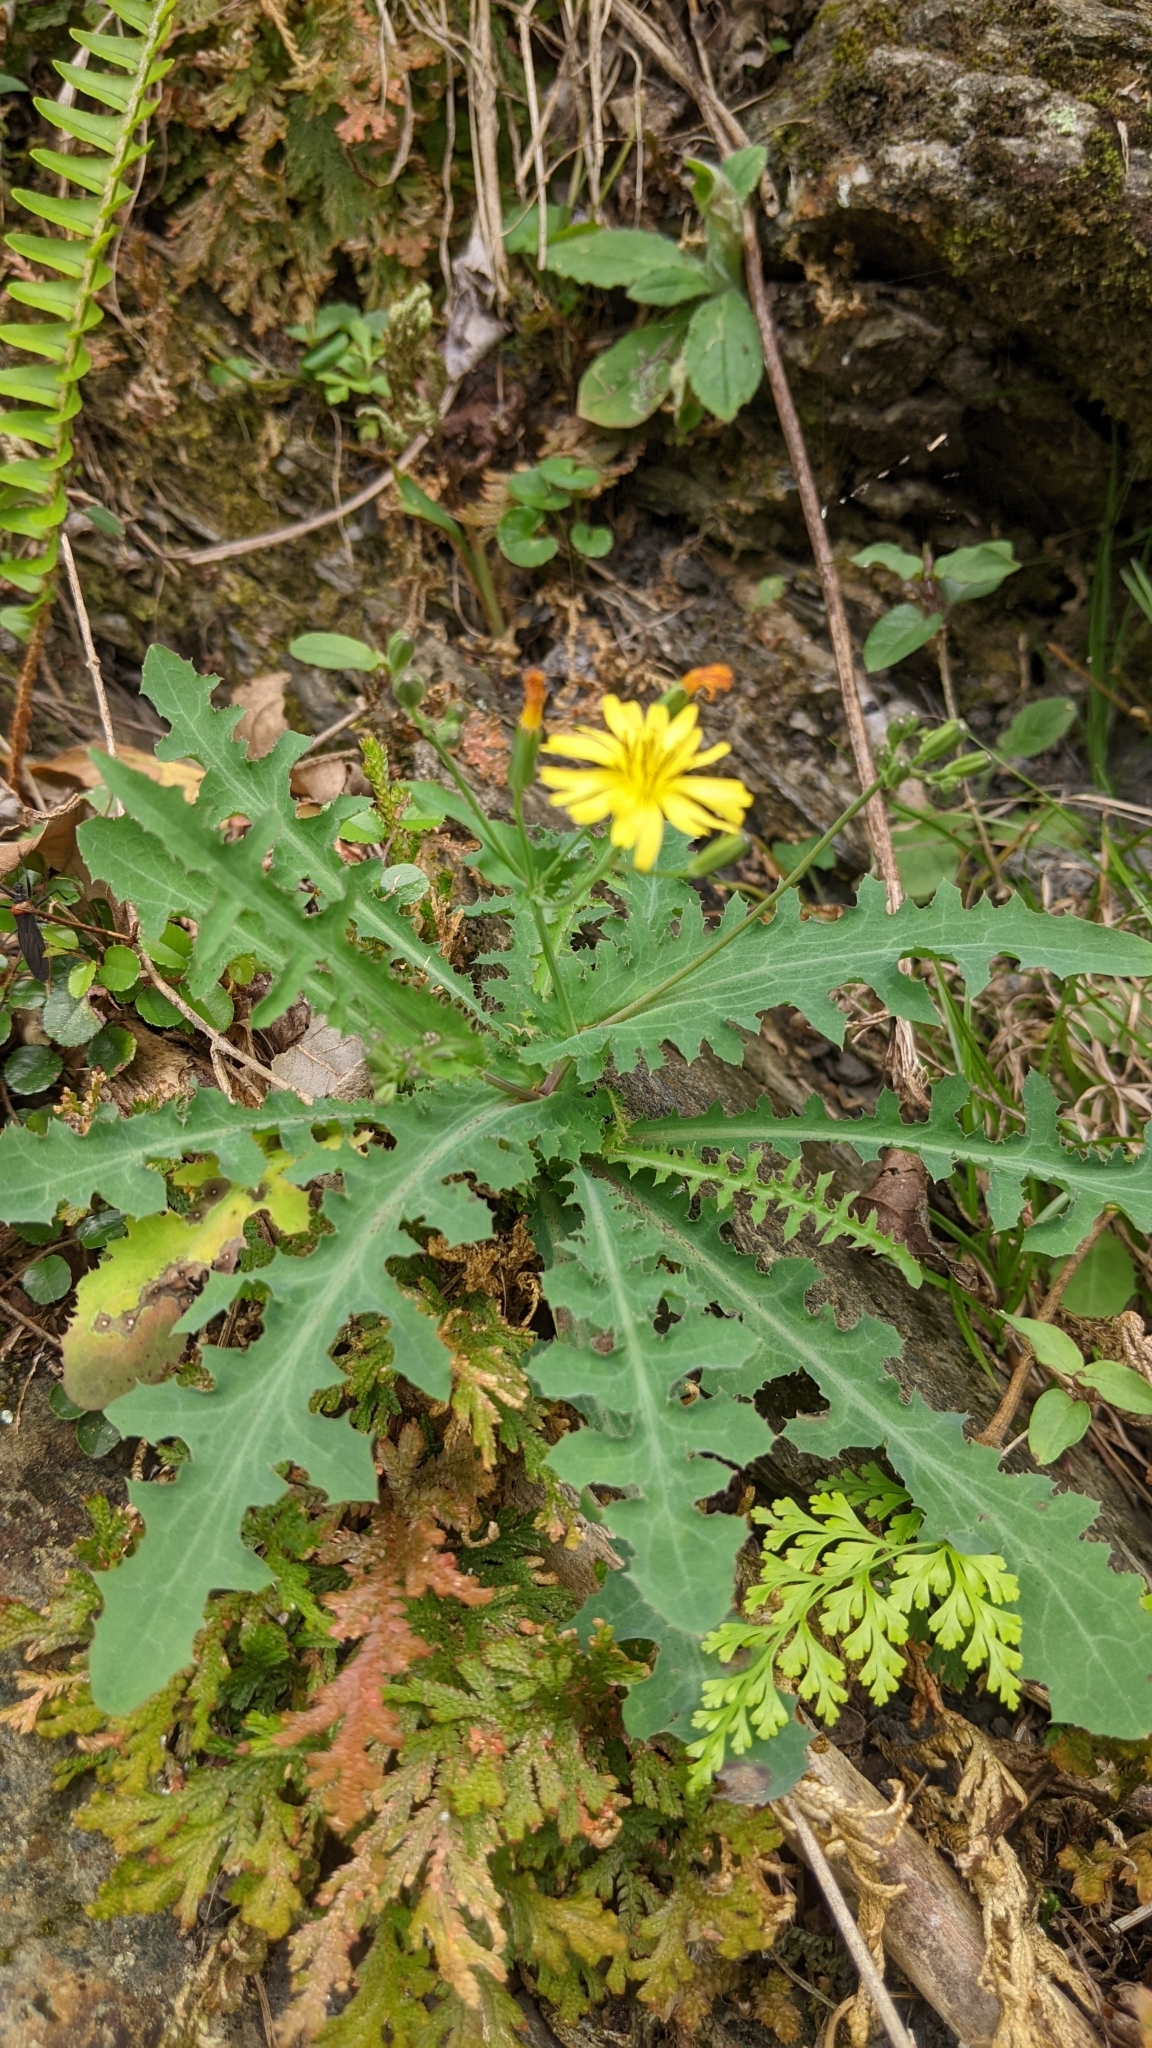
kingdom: Plantae
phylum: Tracheophyta
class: Magnoliopsida
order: Asterales
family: Asteraceae
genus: Ixeridium
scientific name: Ixeridium laevigatum
